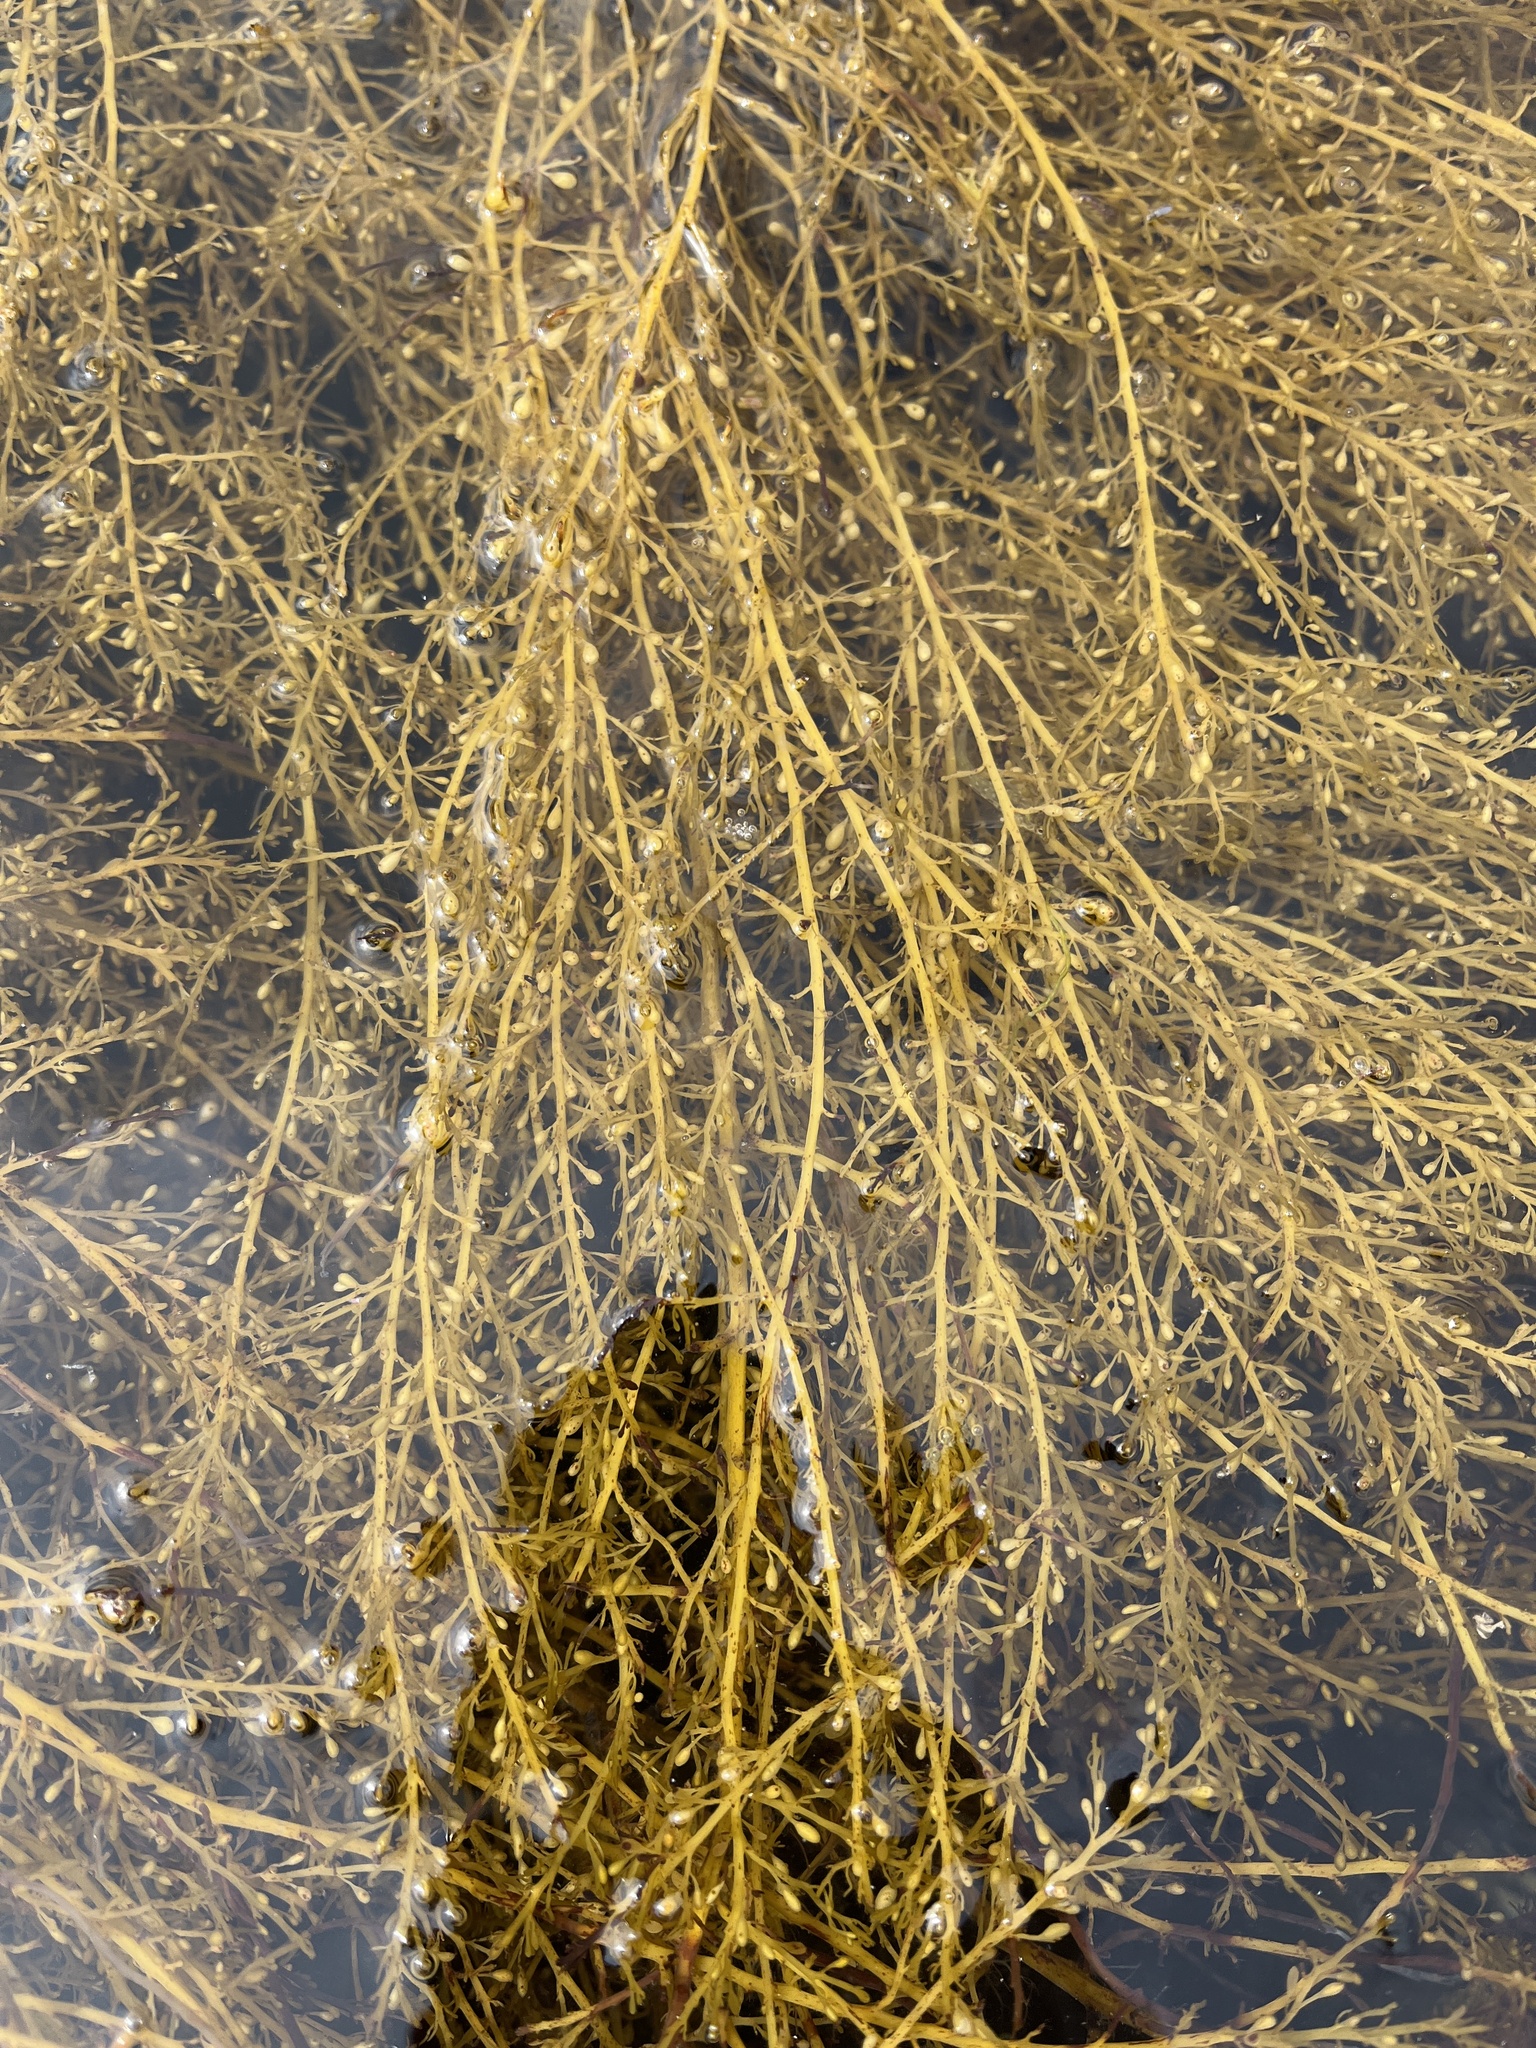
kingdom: Chromista
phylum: Ochrophyta
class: Phaeophyceae
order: Fucales
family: Sargassaceae
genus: Sargassum
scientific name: Sargassum muticum
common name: Japweed
